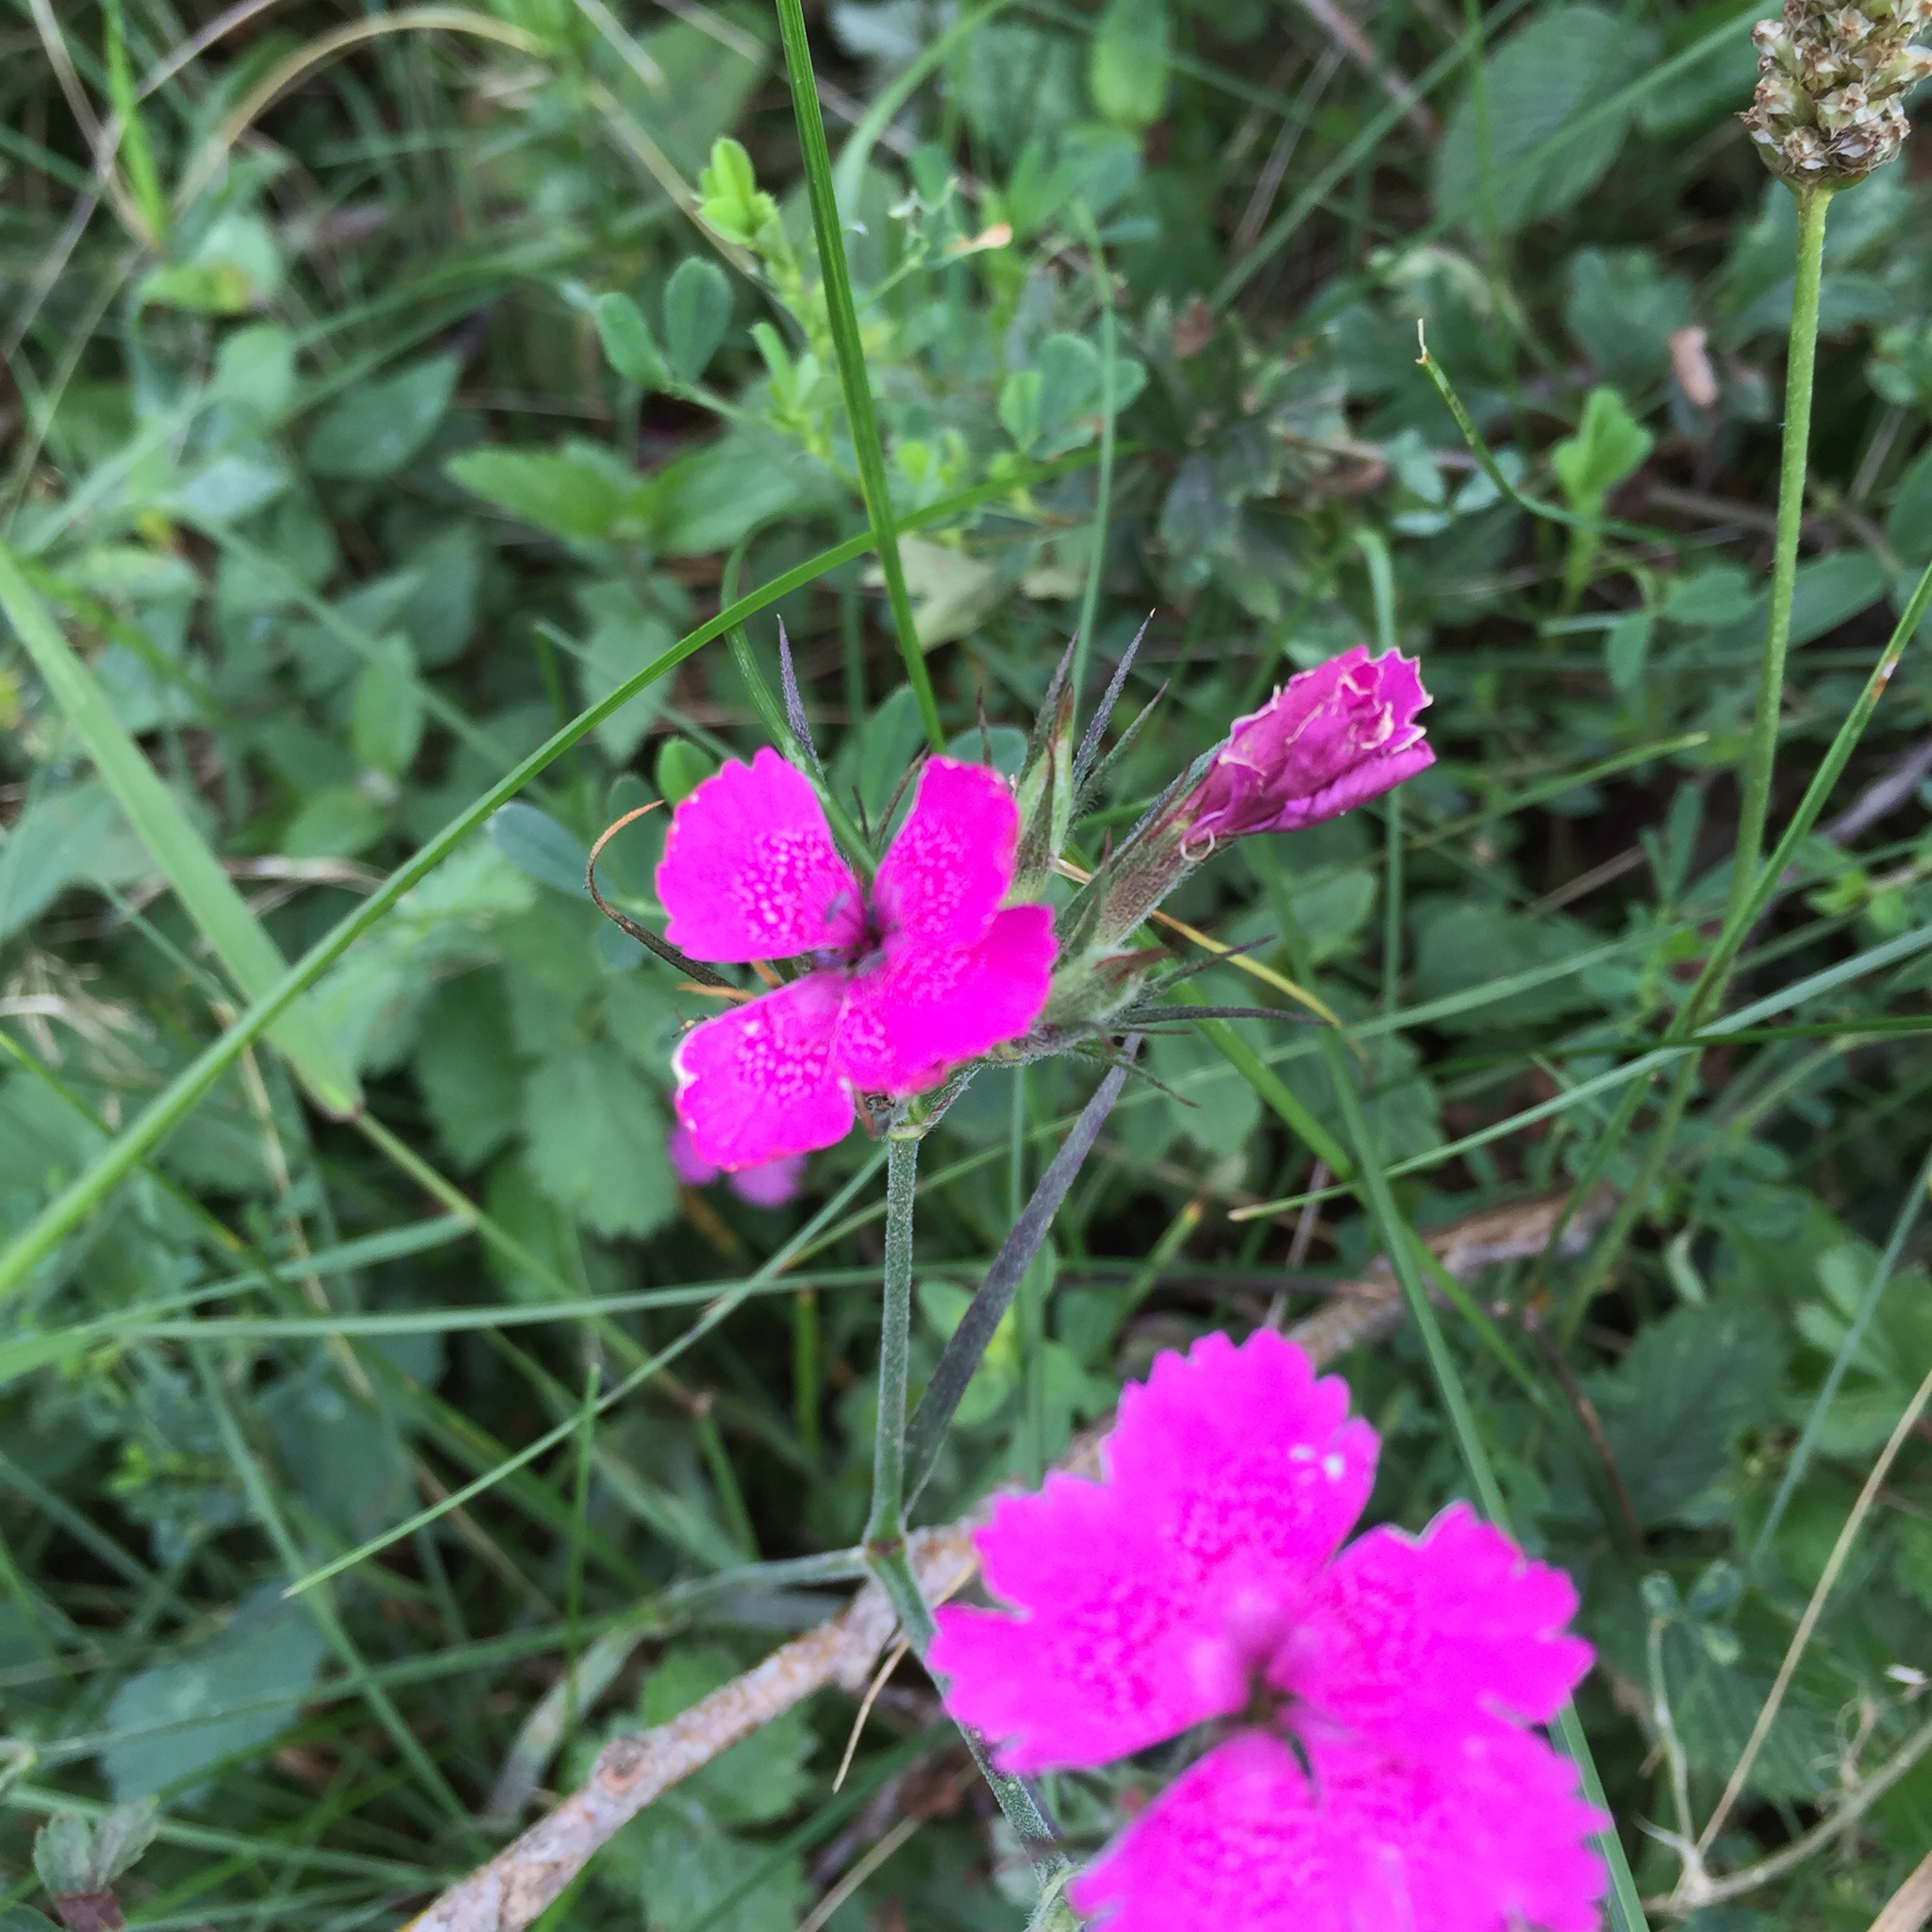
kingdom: Plantae
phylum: Tracheophyta
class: Magnoliopsida
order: Caryophyllales
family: Caryophyllaceae
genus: Dianthus
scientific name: Dianthus armeria
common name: Deptford pink
